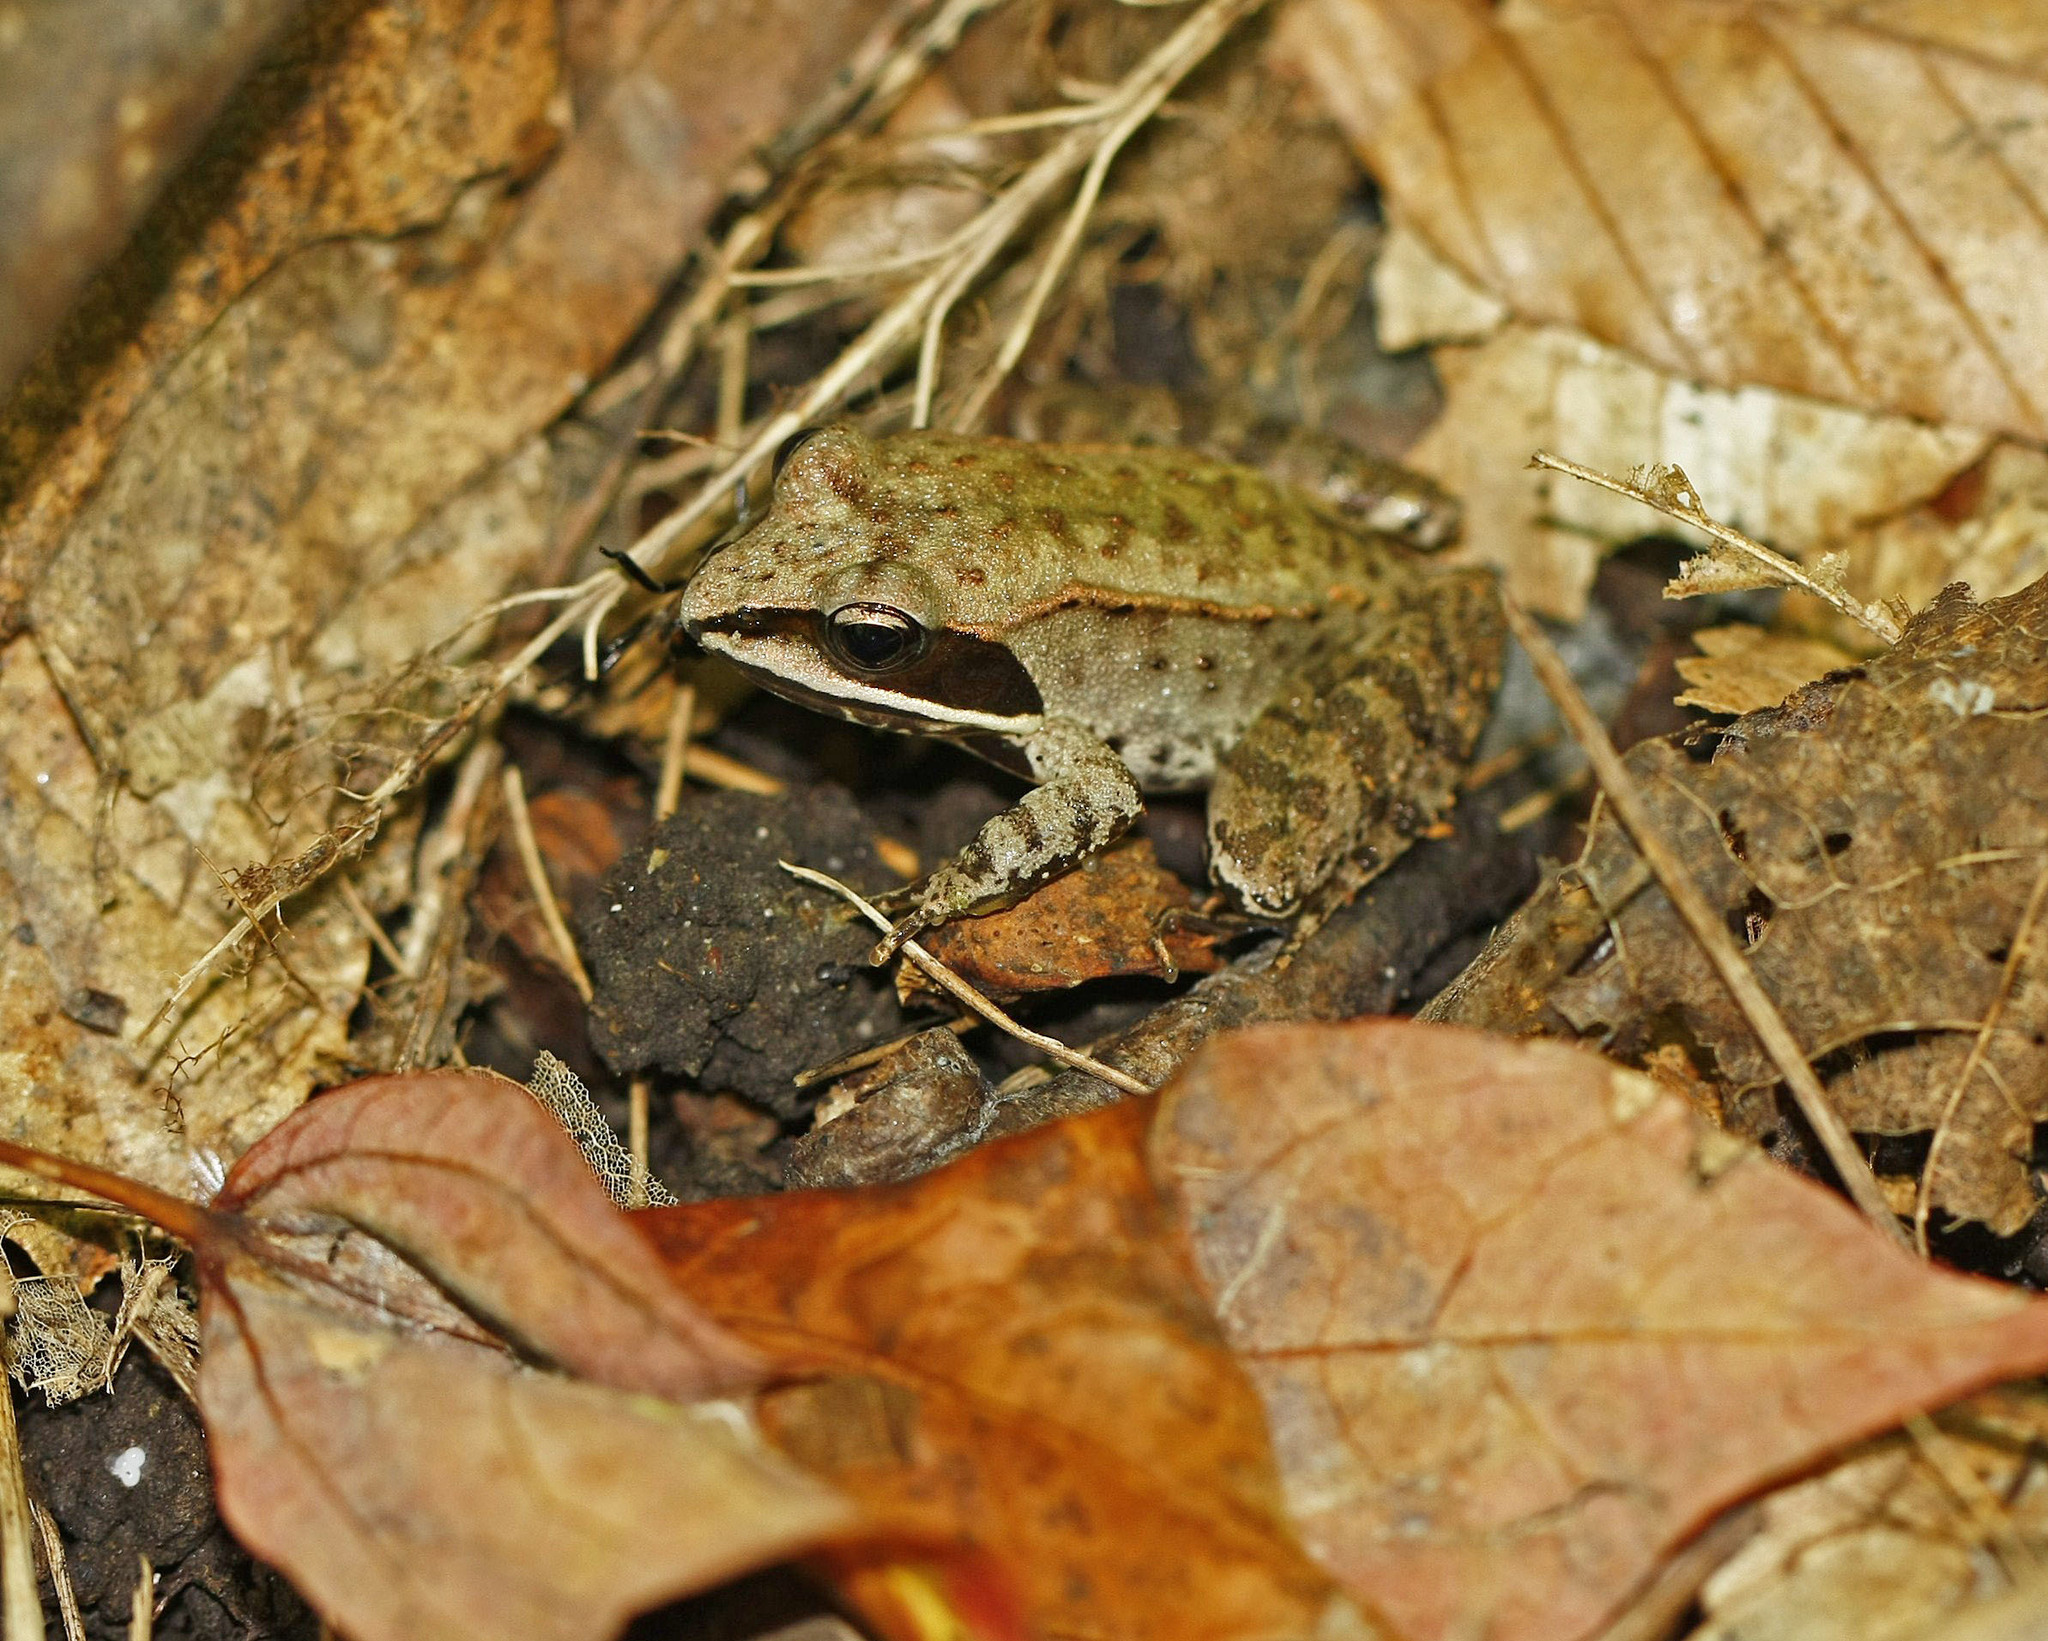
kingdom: Animalia
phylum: Chordata
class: Amphibia
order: Anura
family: Ranidae
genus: Lithobates
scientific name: Lithobates sylvaticus
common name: Wood frog
